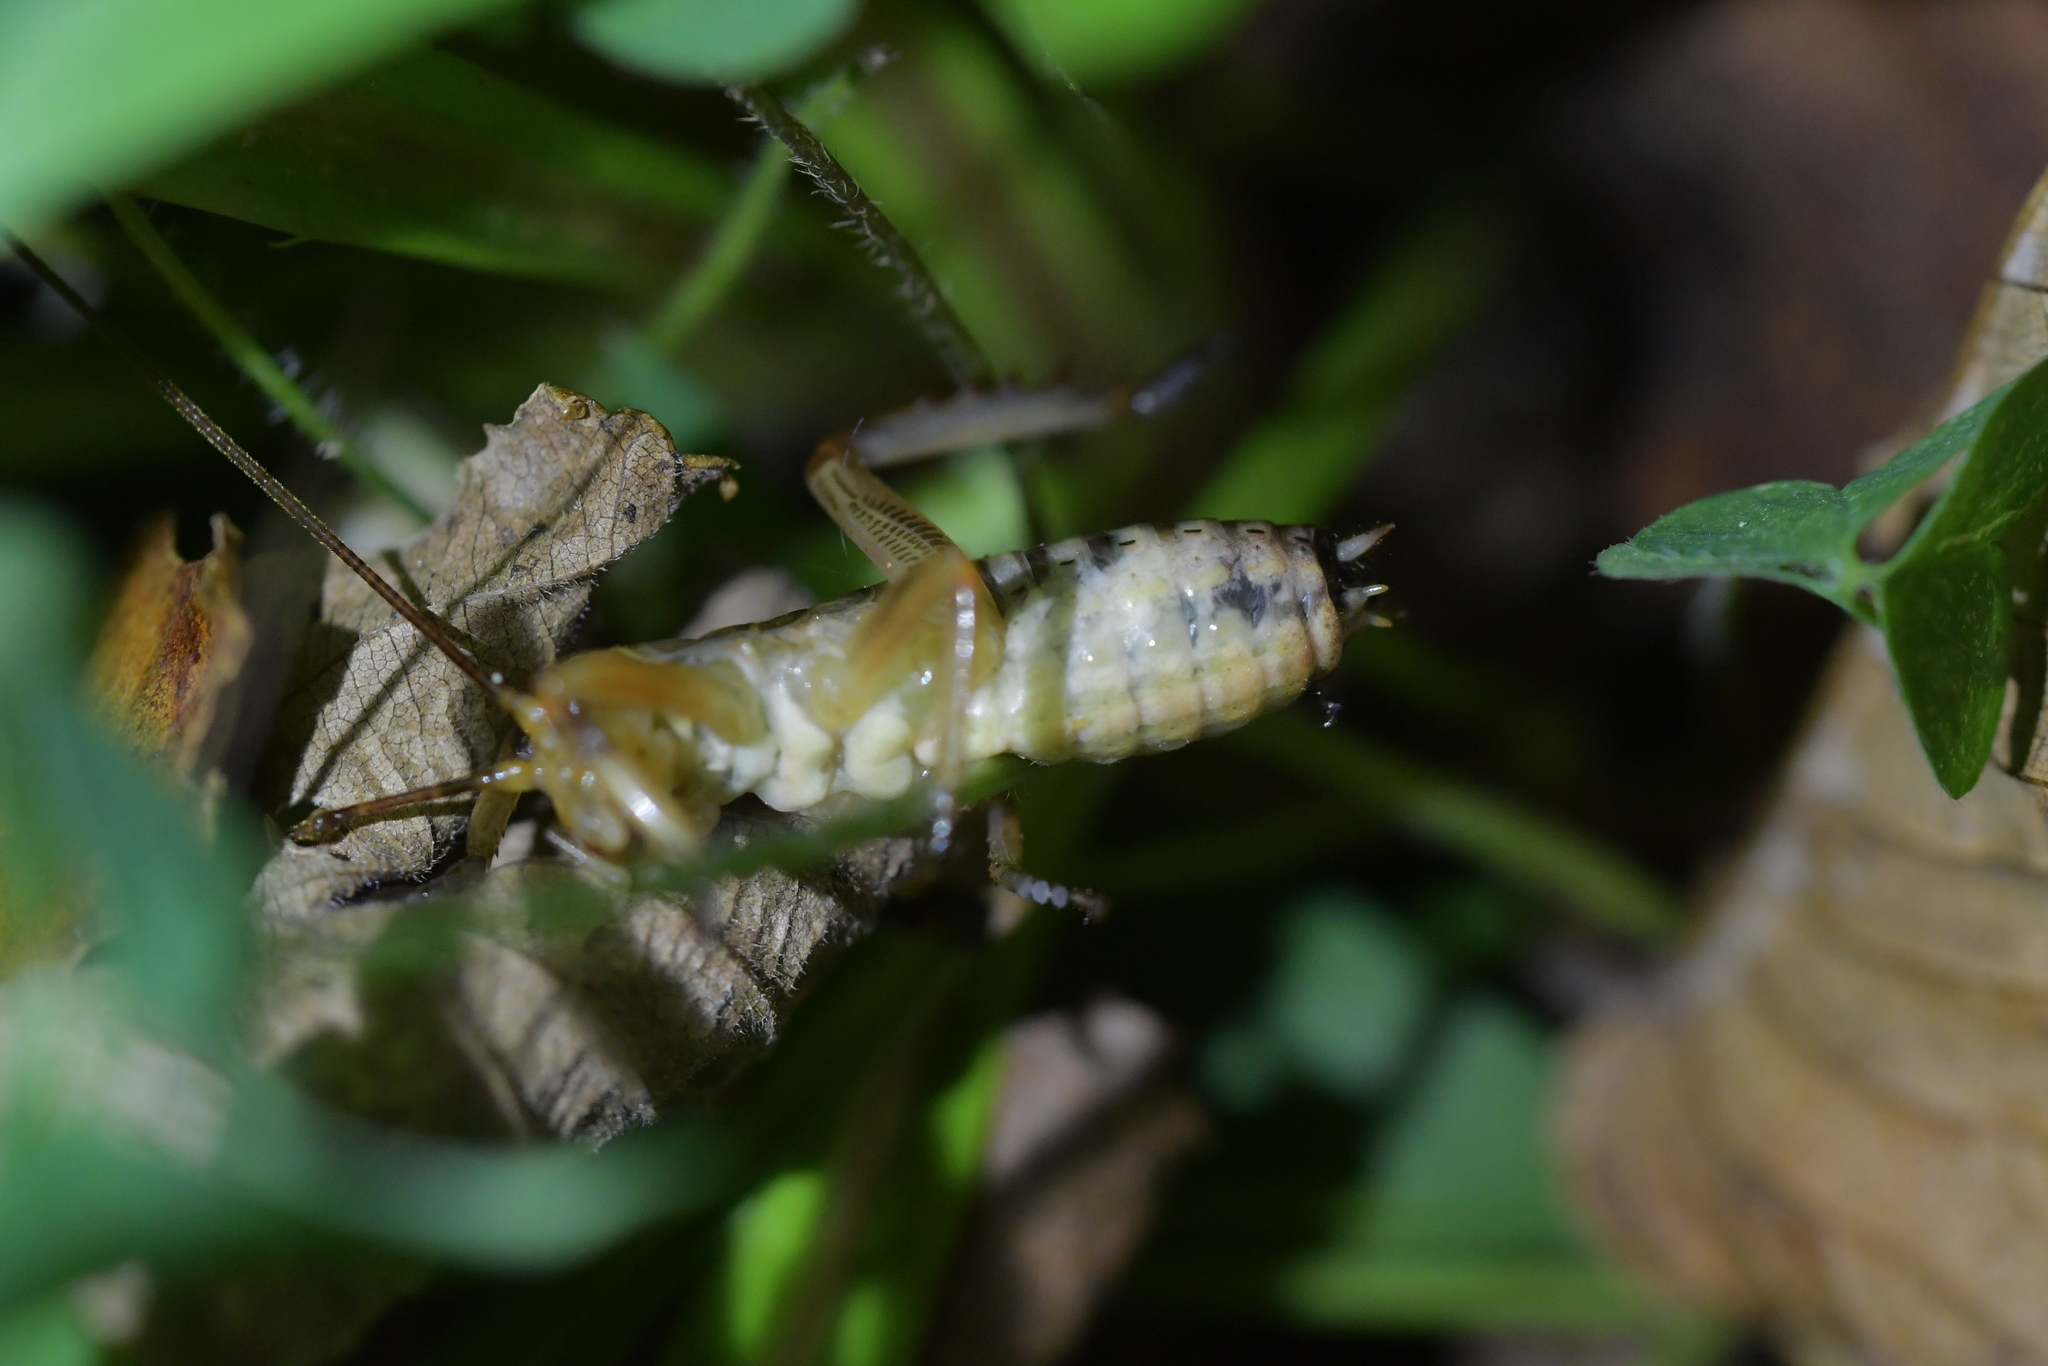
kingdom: Animalia
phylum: Arthropoda
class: Insecta
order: Orthoptera
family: Anostostomatidae
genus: Hemideina
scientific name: Hemideina crassidens
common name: Wellington tree weta
